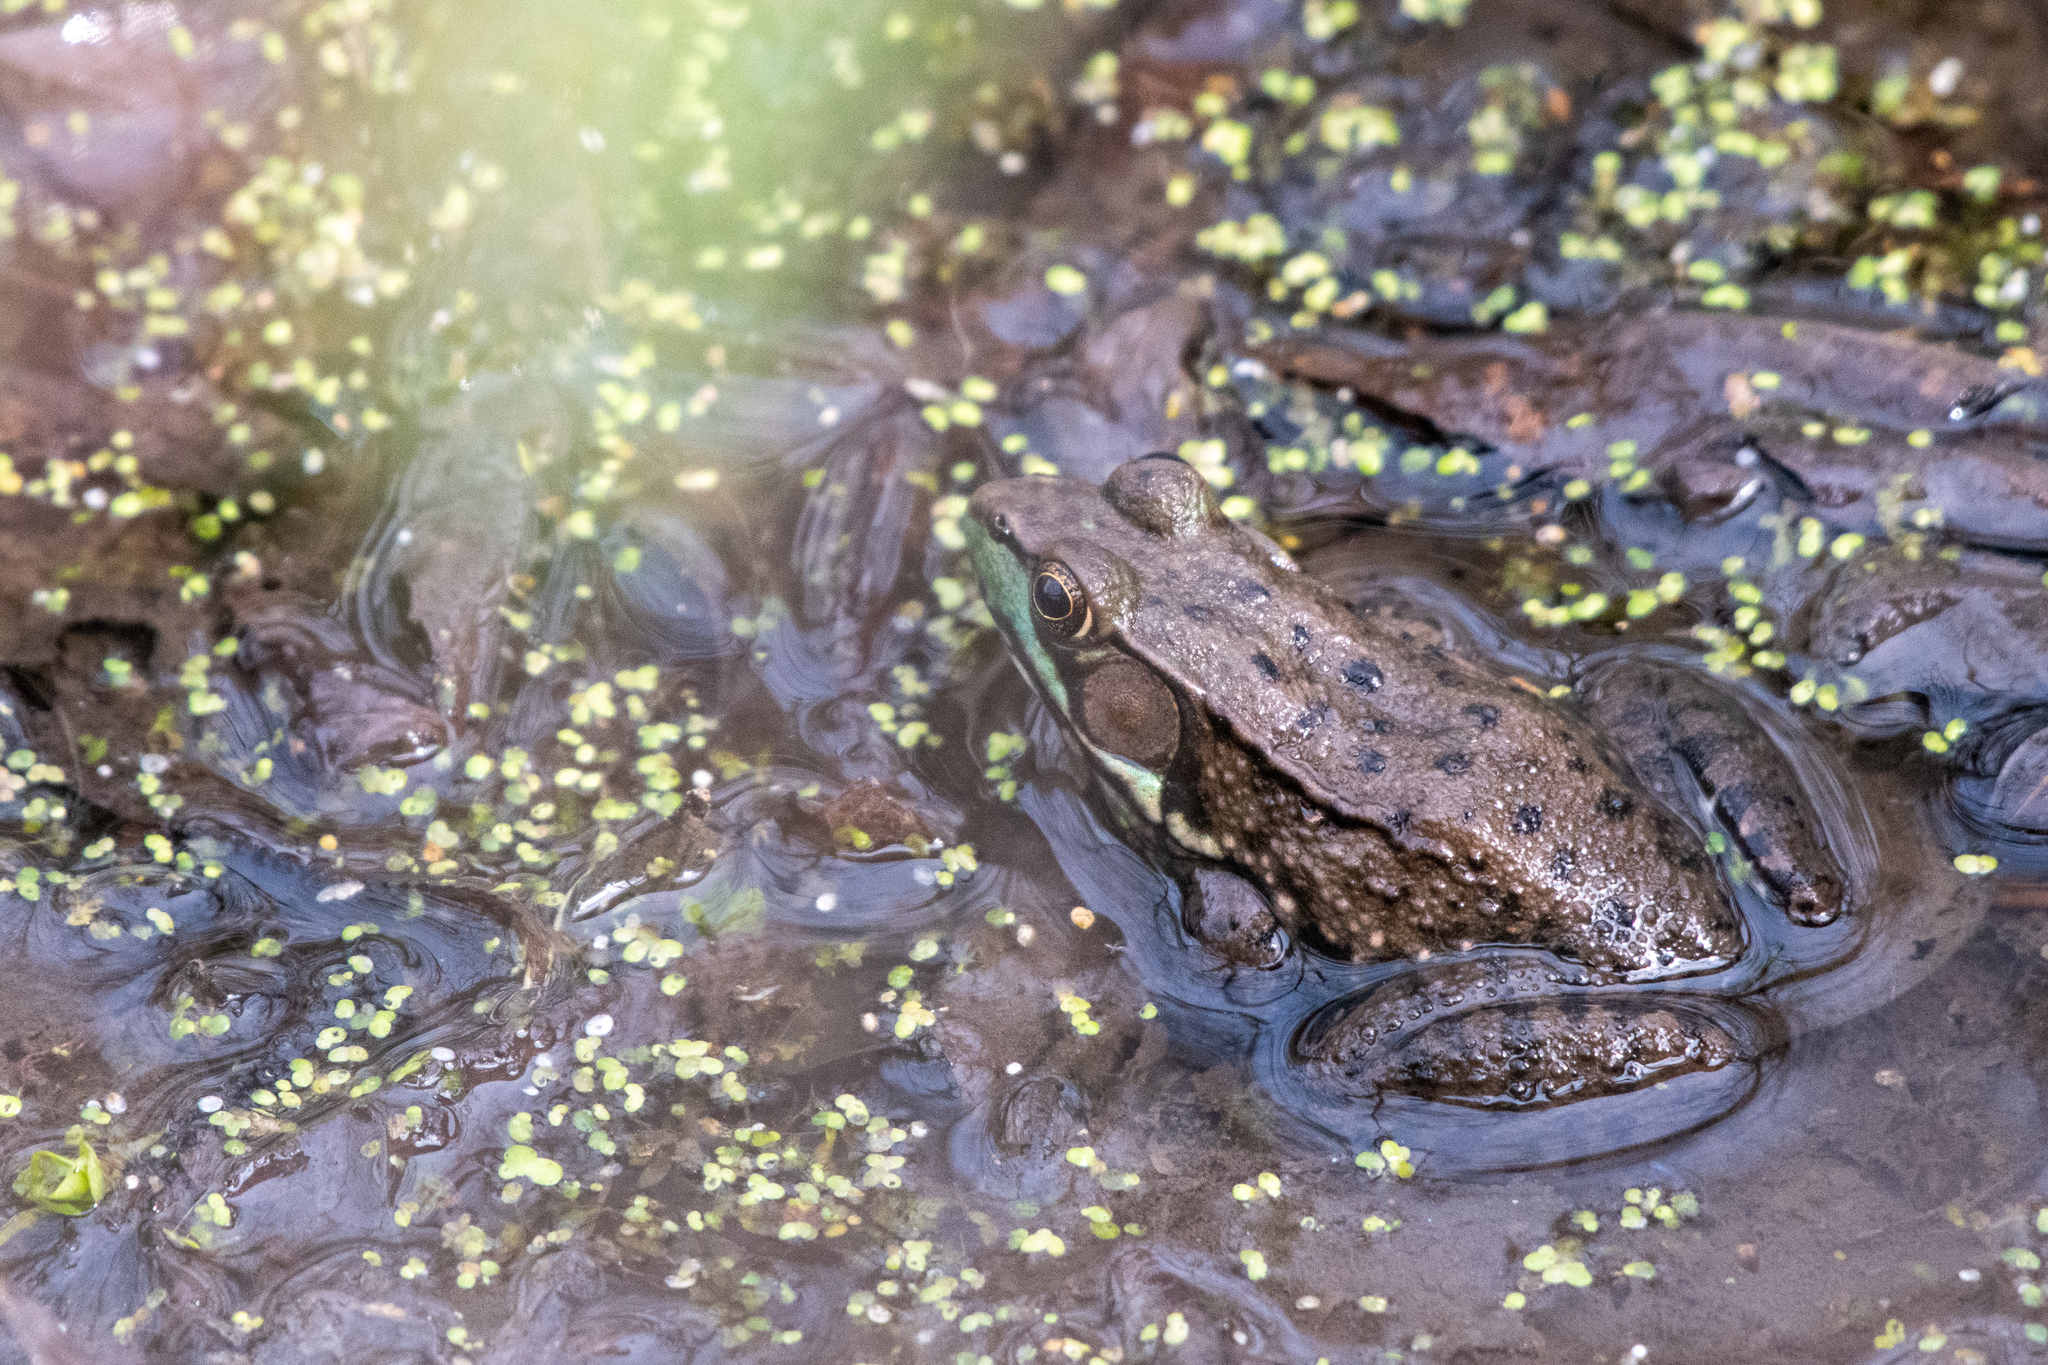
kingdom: Animalia
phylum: Chordata
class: Amphibia
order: Anura
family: Ranidae
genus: Lithobates
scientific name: Lithobates clamitans
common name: Green frog
